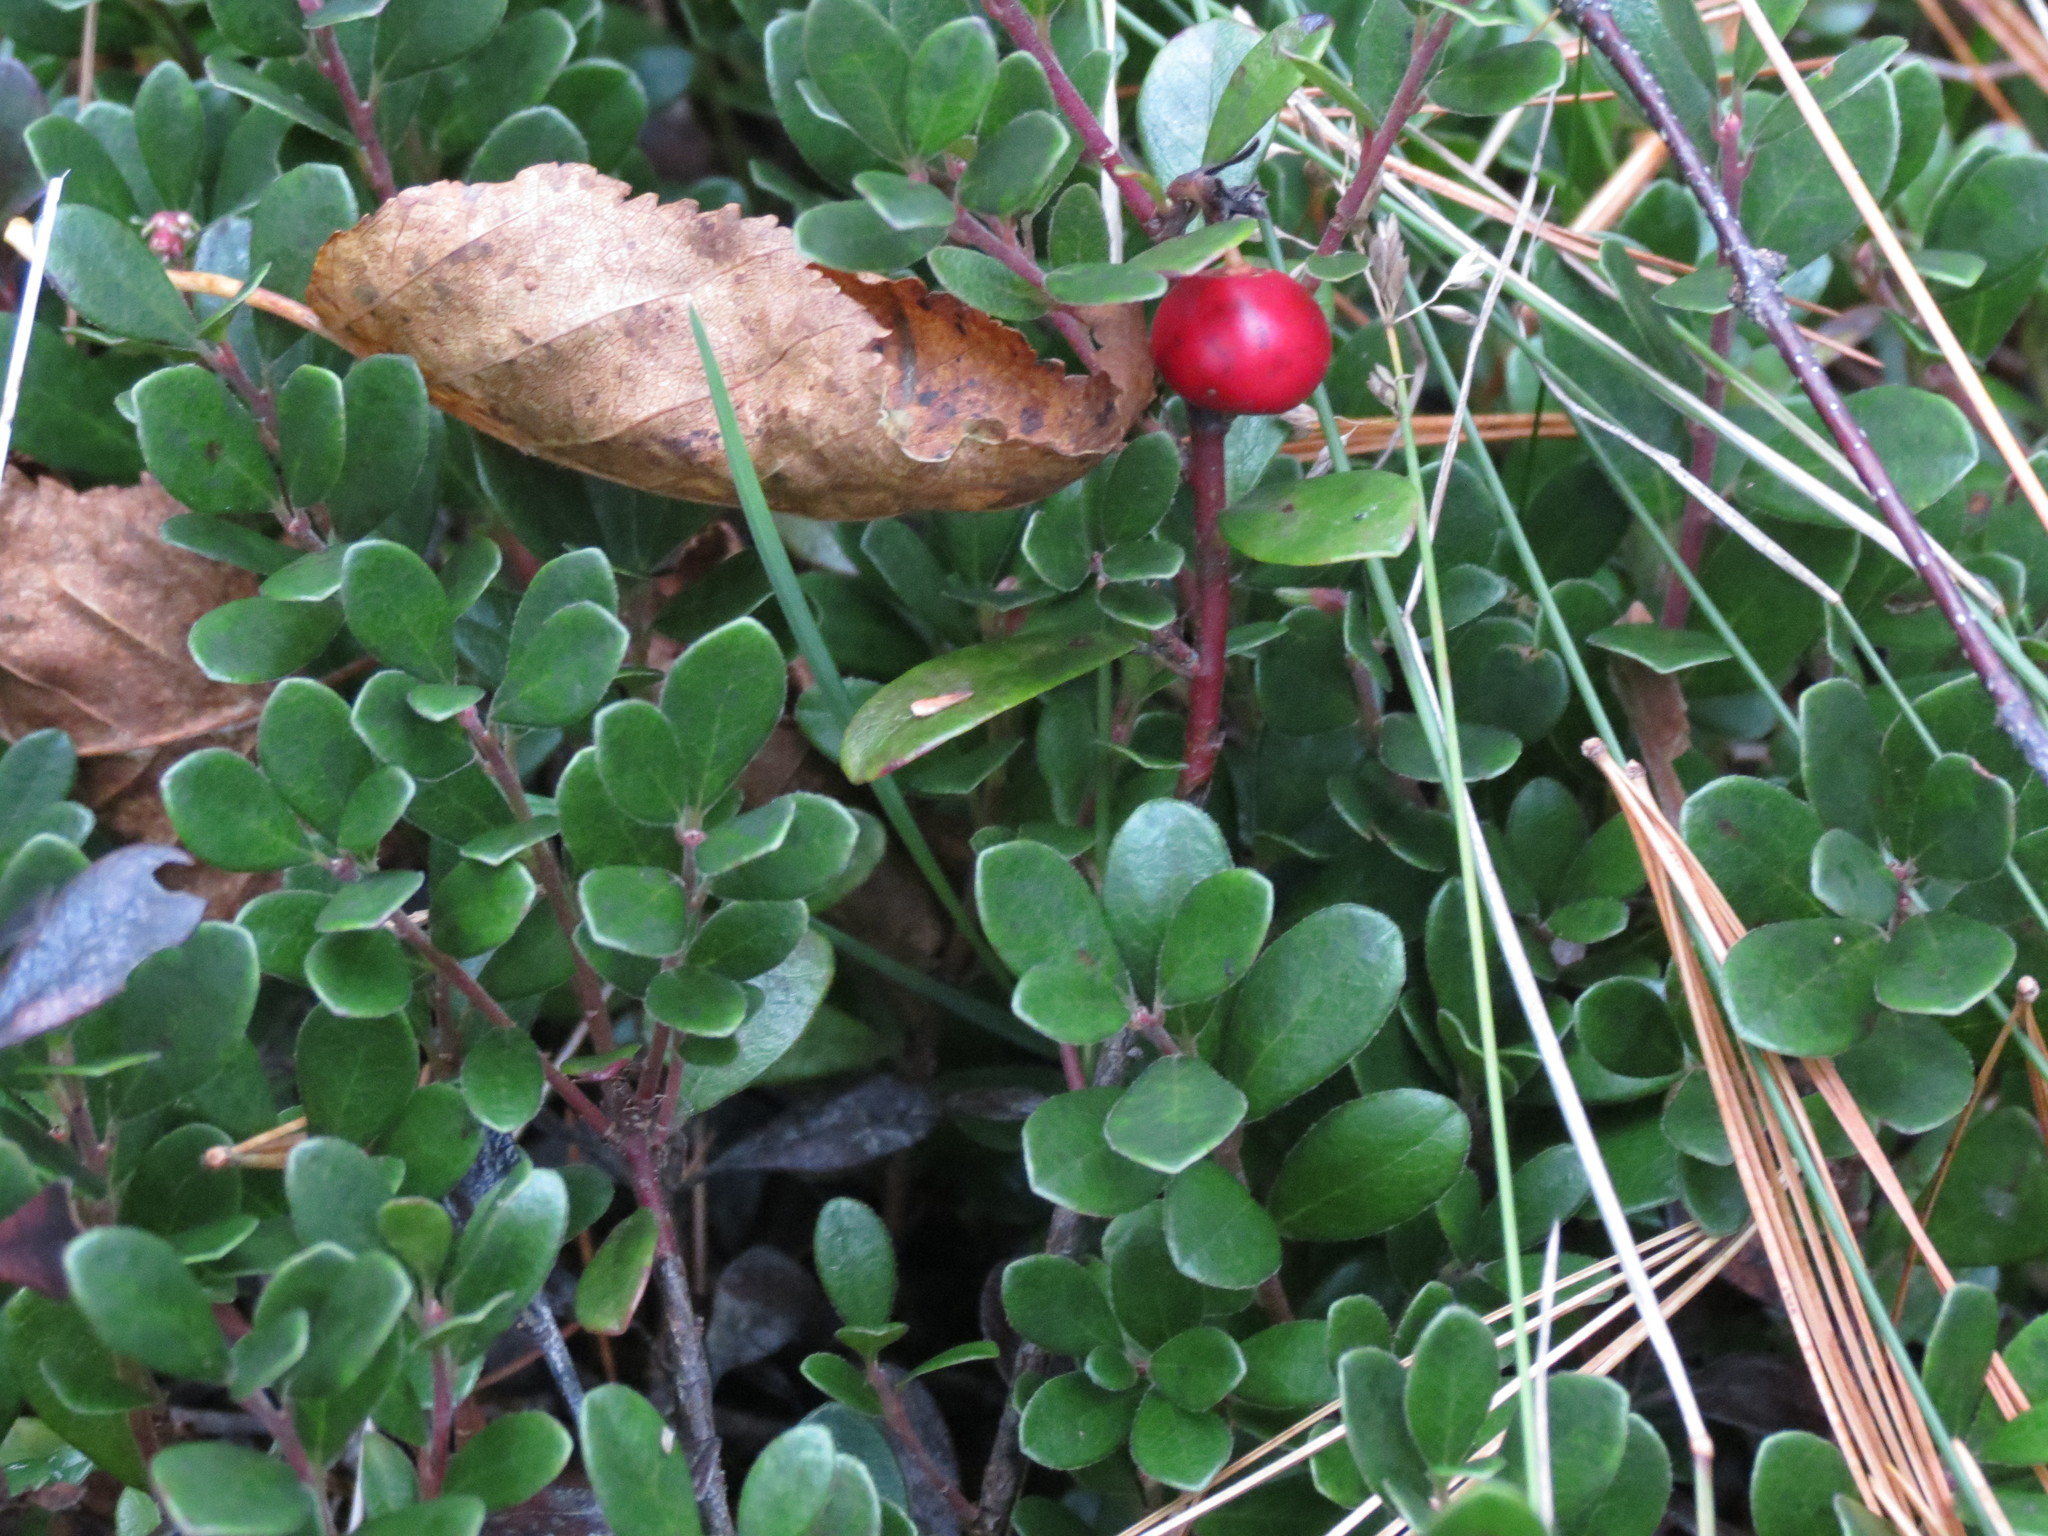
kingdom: Plantae
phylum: Tracheophyta
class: Magnoliopsida
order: Ericales
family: Ericaceae
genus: Arctostaphylos
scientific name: Arctostaphylos uva-ursi
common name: Bearberry
